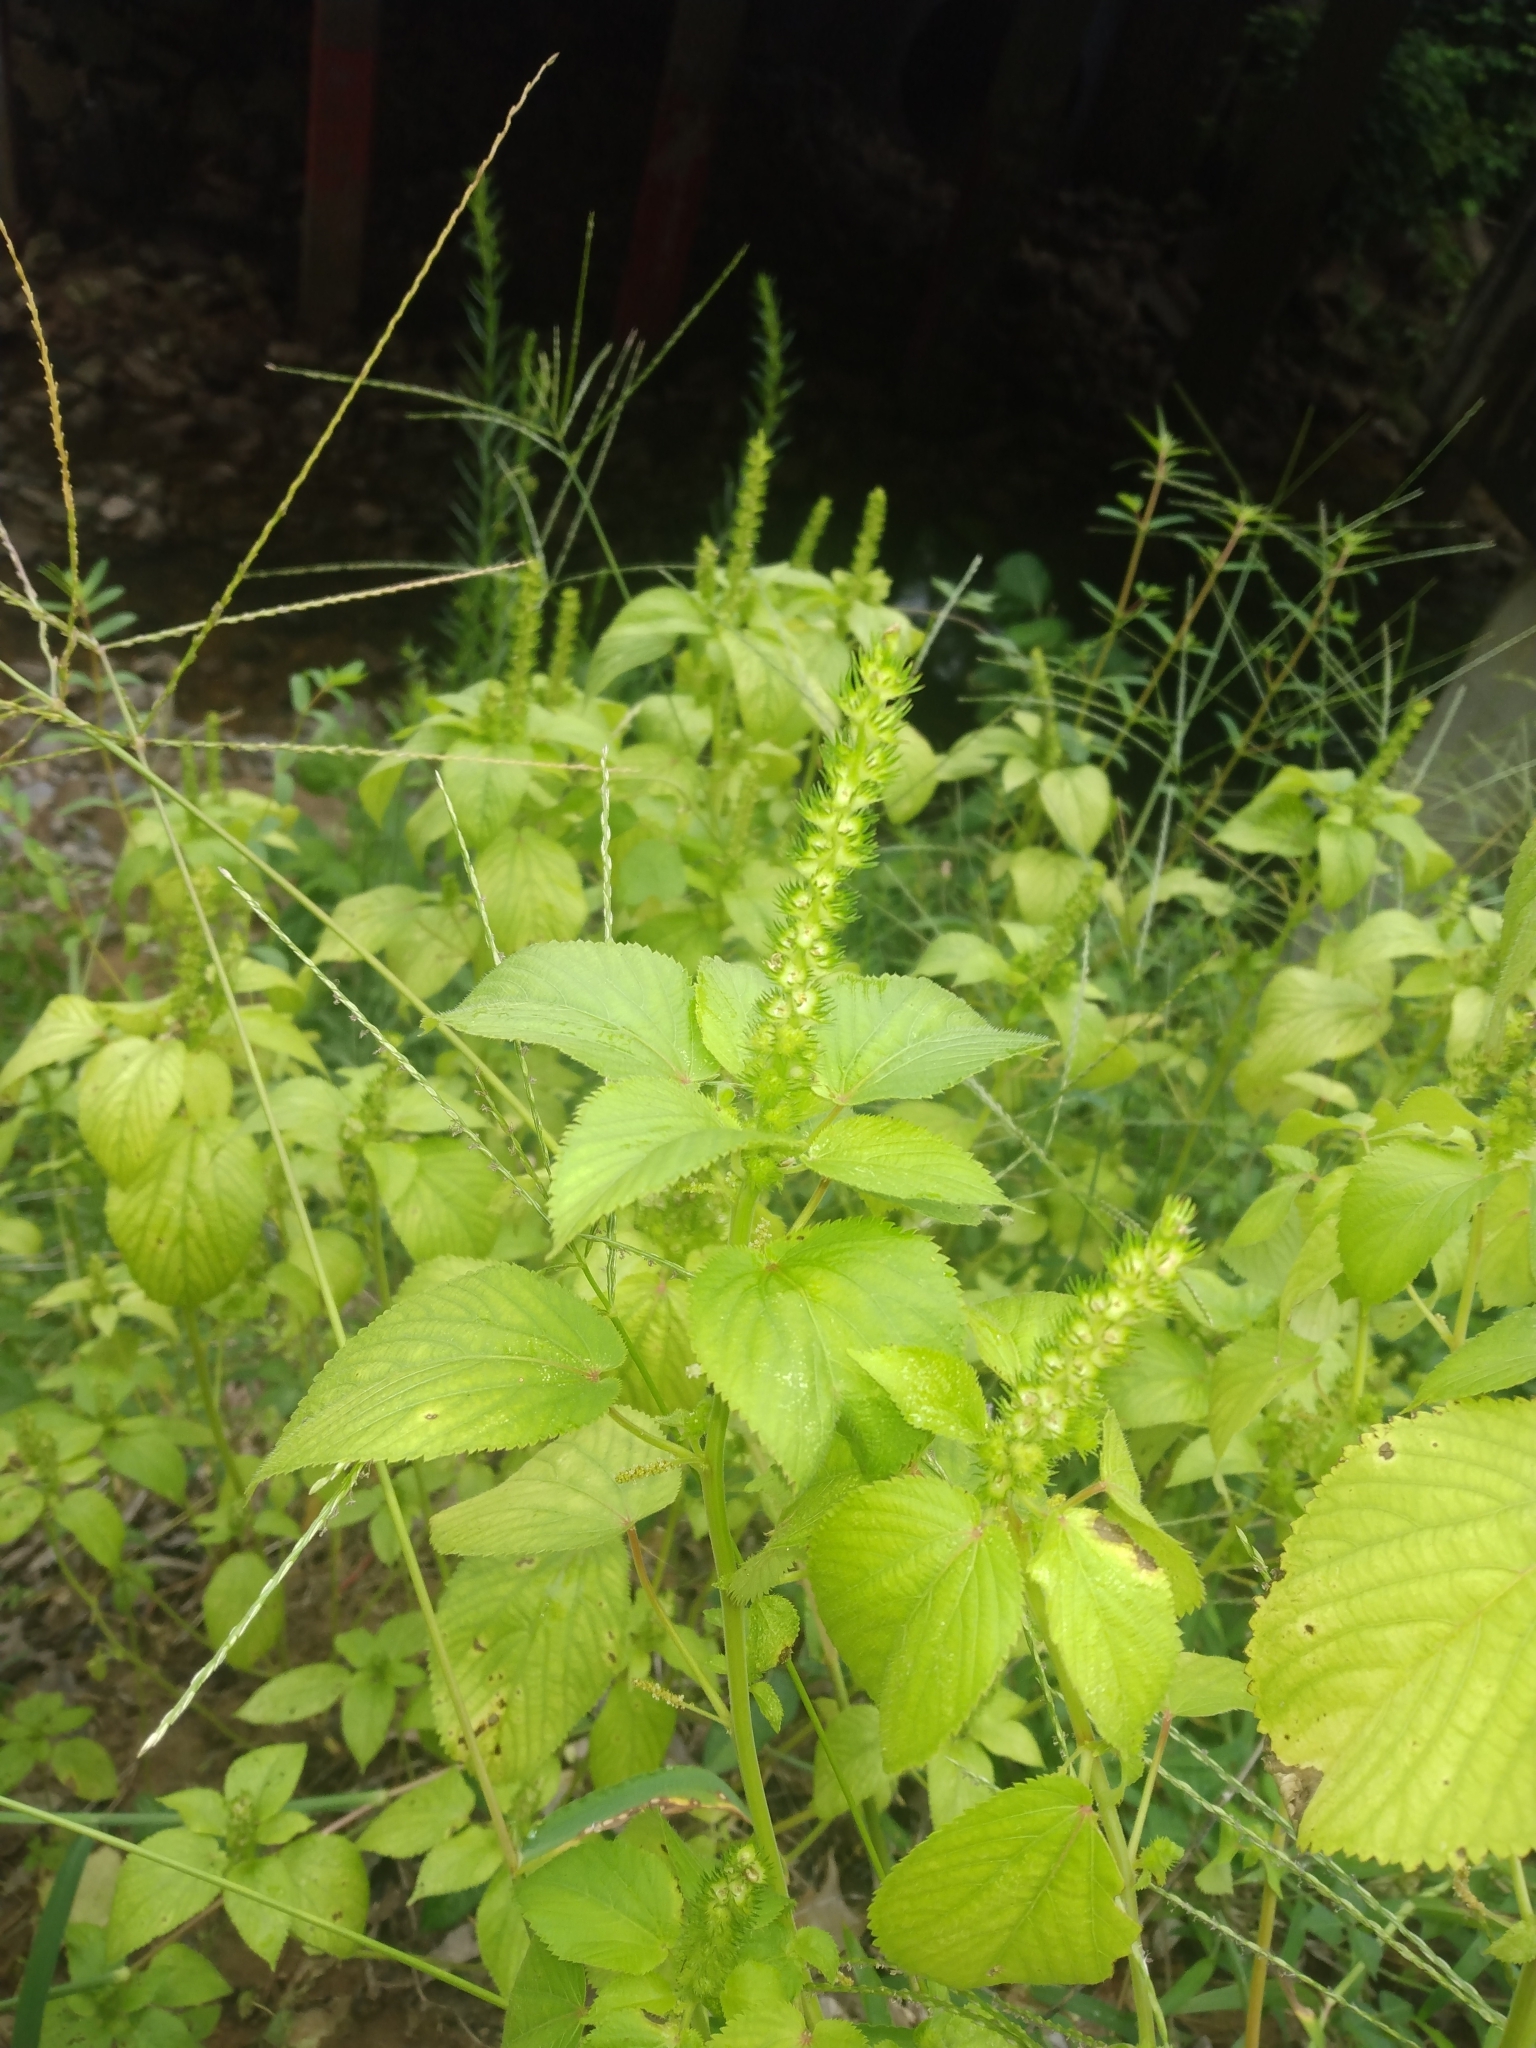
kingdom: Plantae
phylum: Tracheophyta
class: Magnoliopsida
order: Malpighiales
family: Euphorbiaceae
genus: Acalypha
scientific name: Acalypha ostryifolia
